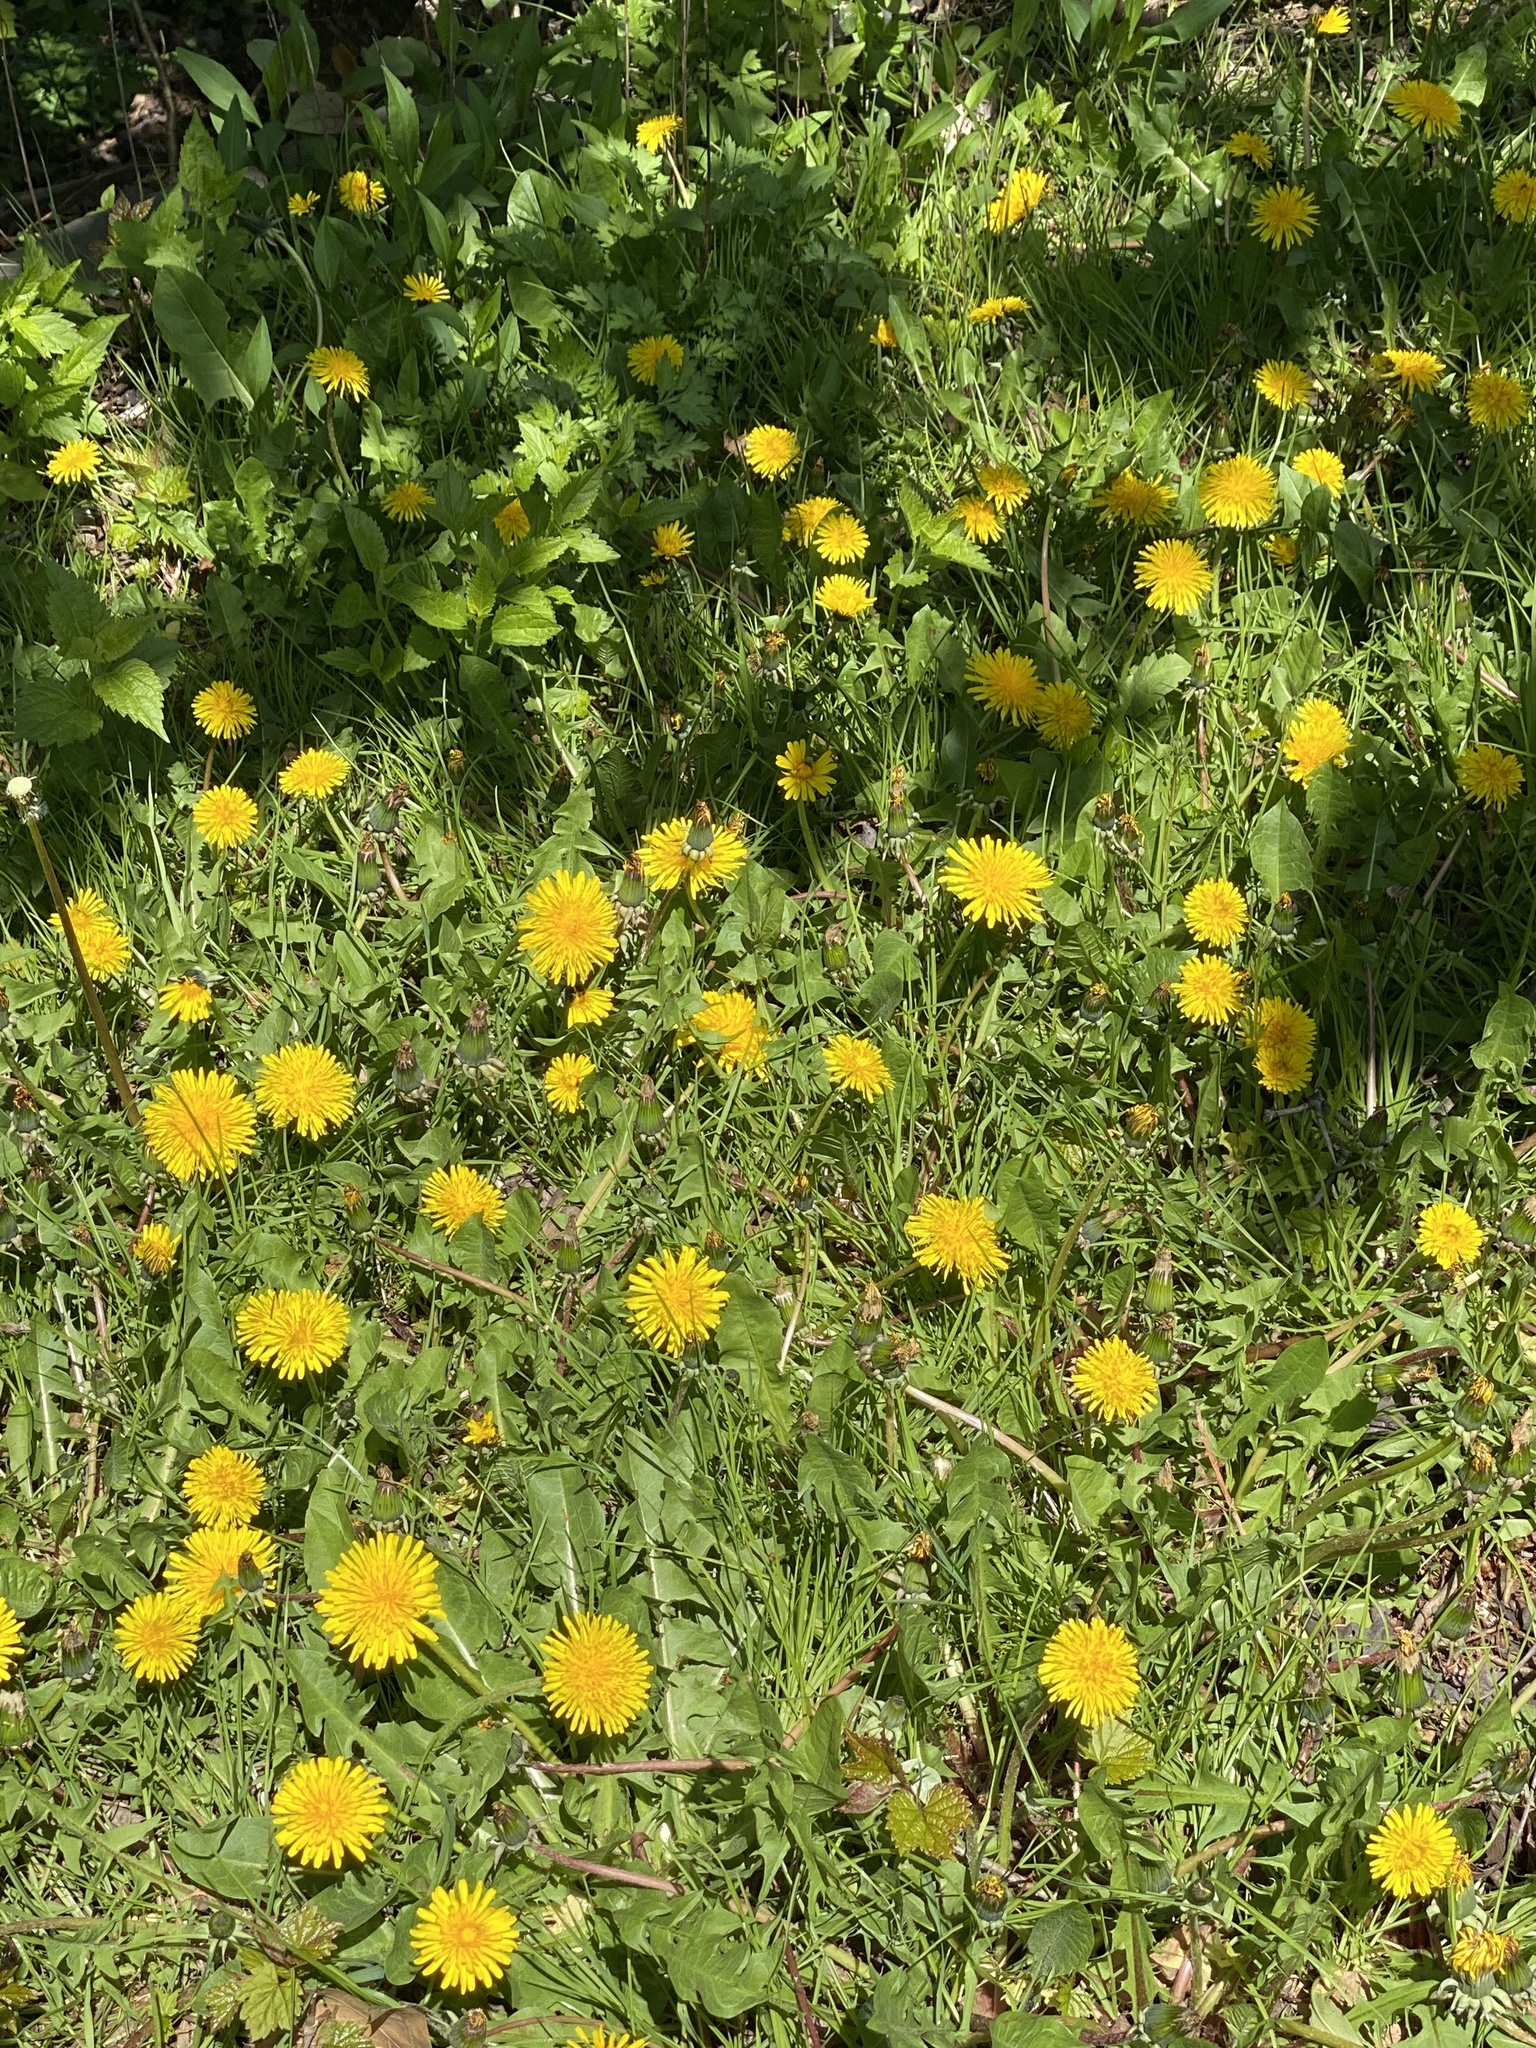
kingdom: Plantae
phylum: Tracheophyta
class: Magnoliopsida
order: Asterales
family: Asteraceae
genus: Taraxacum
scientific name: Taraxacum
